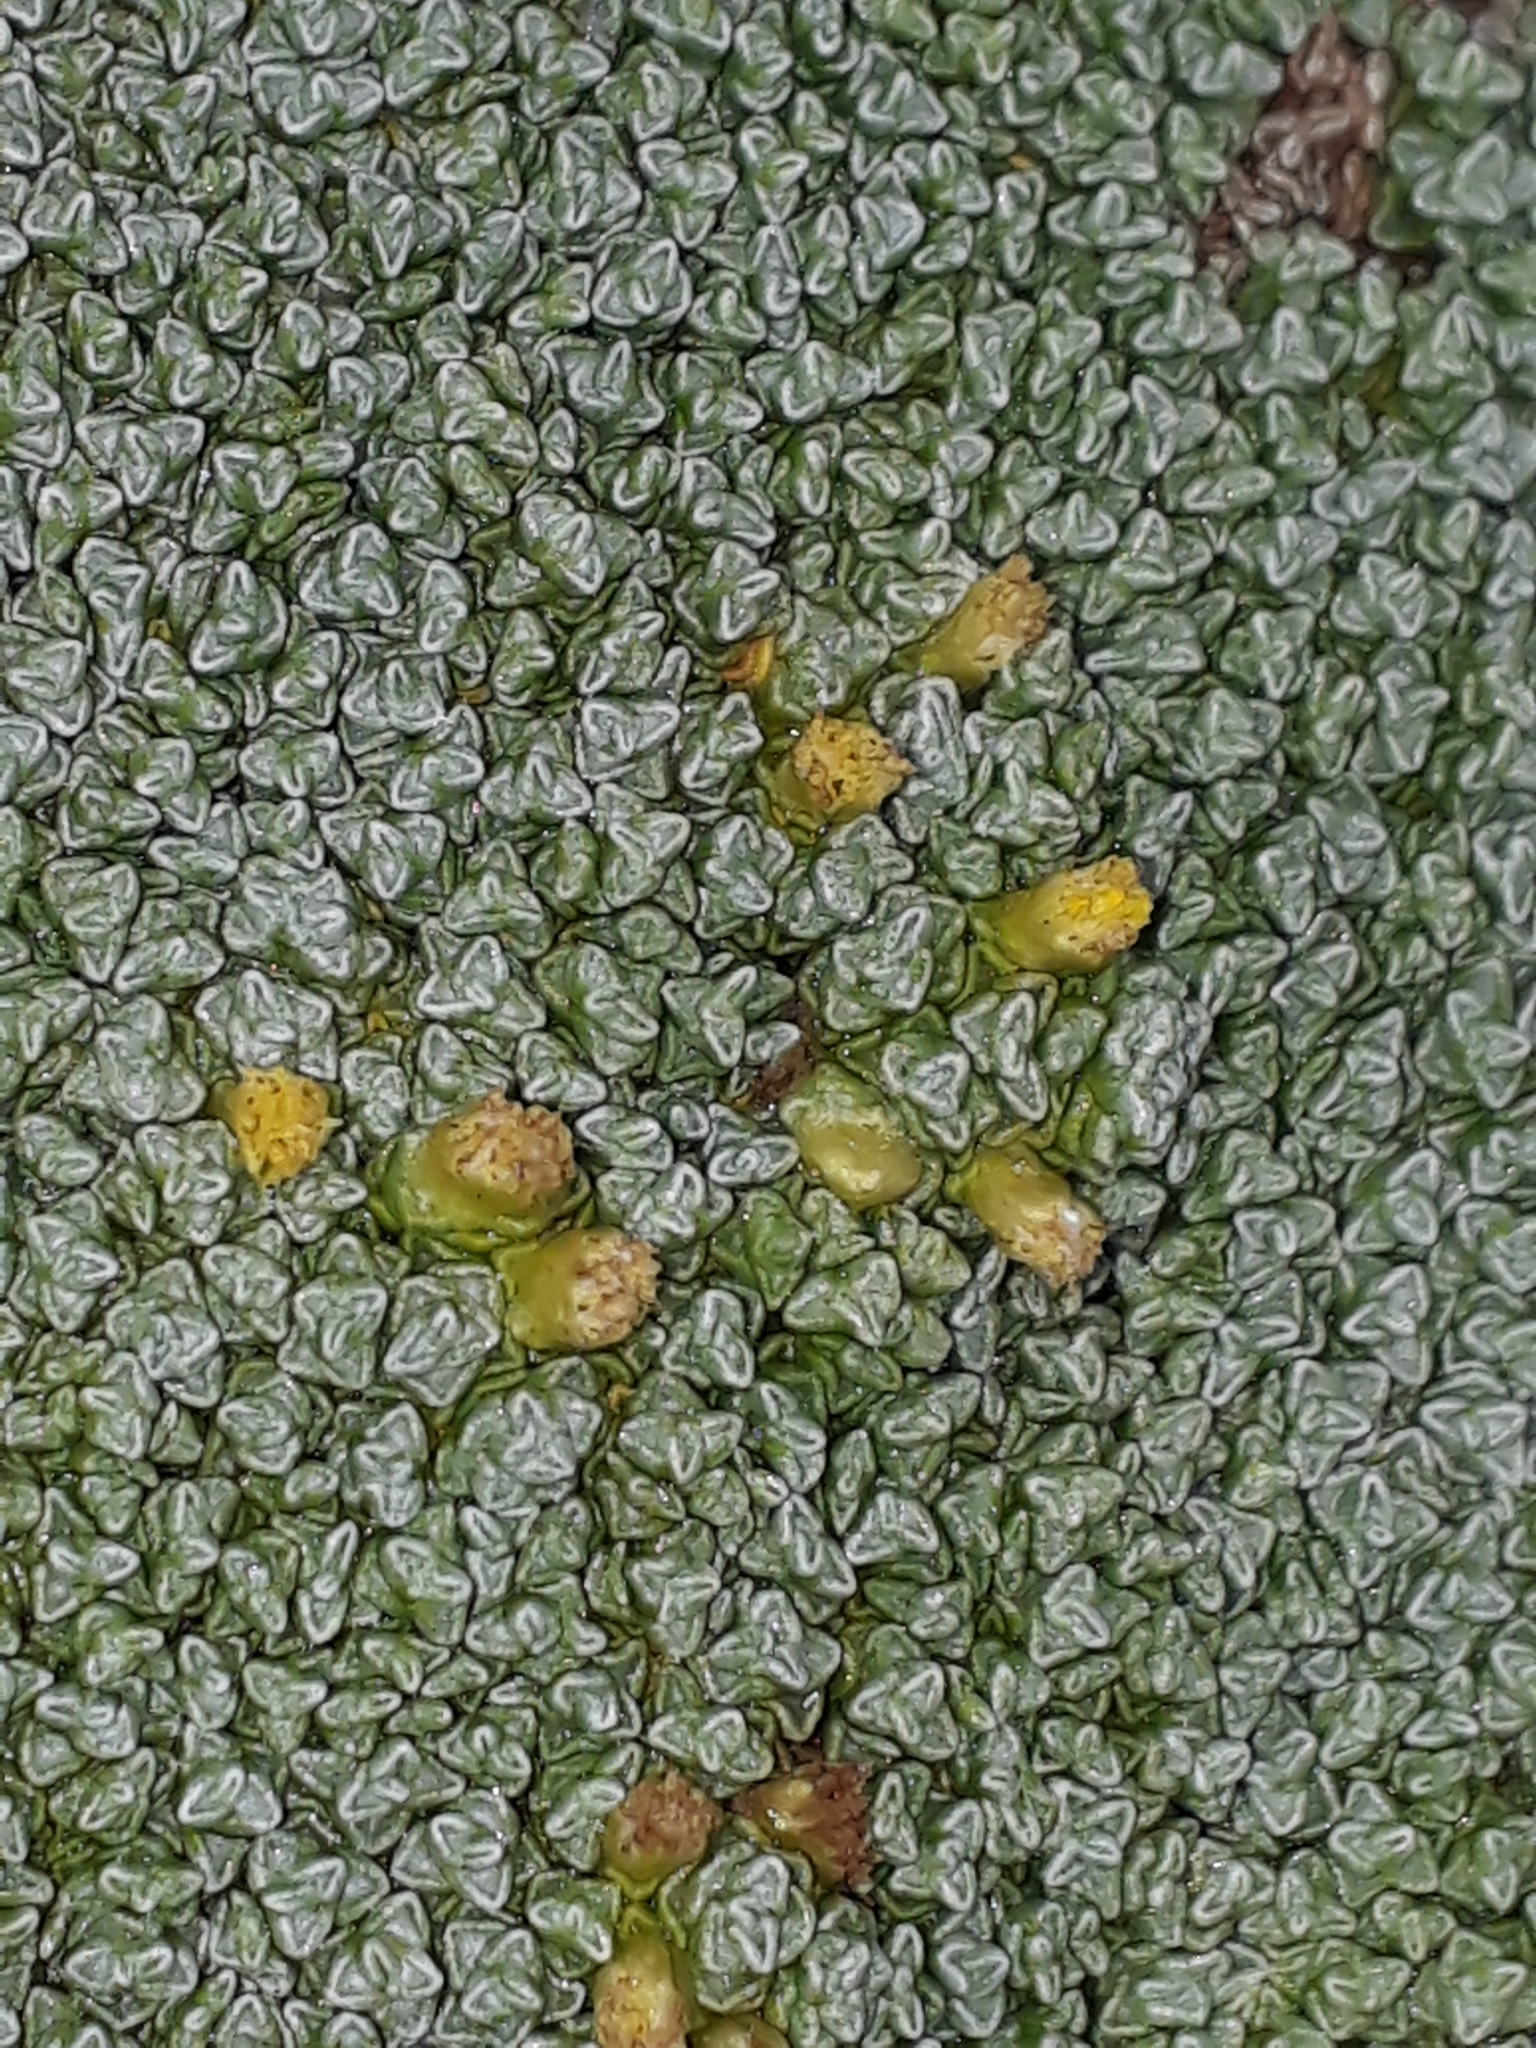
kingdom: Plantae
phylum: Tracheophyta
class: Magnoliopsida
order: Asterales
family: Asteraceae
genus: Raoulia
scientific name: Raoulia australis
